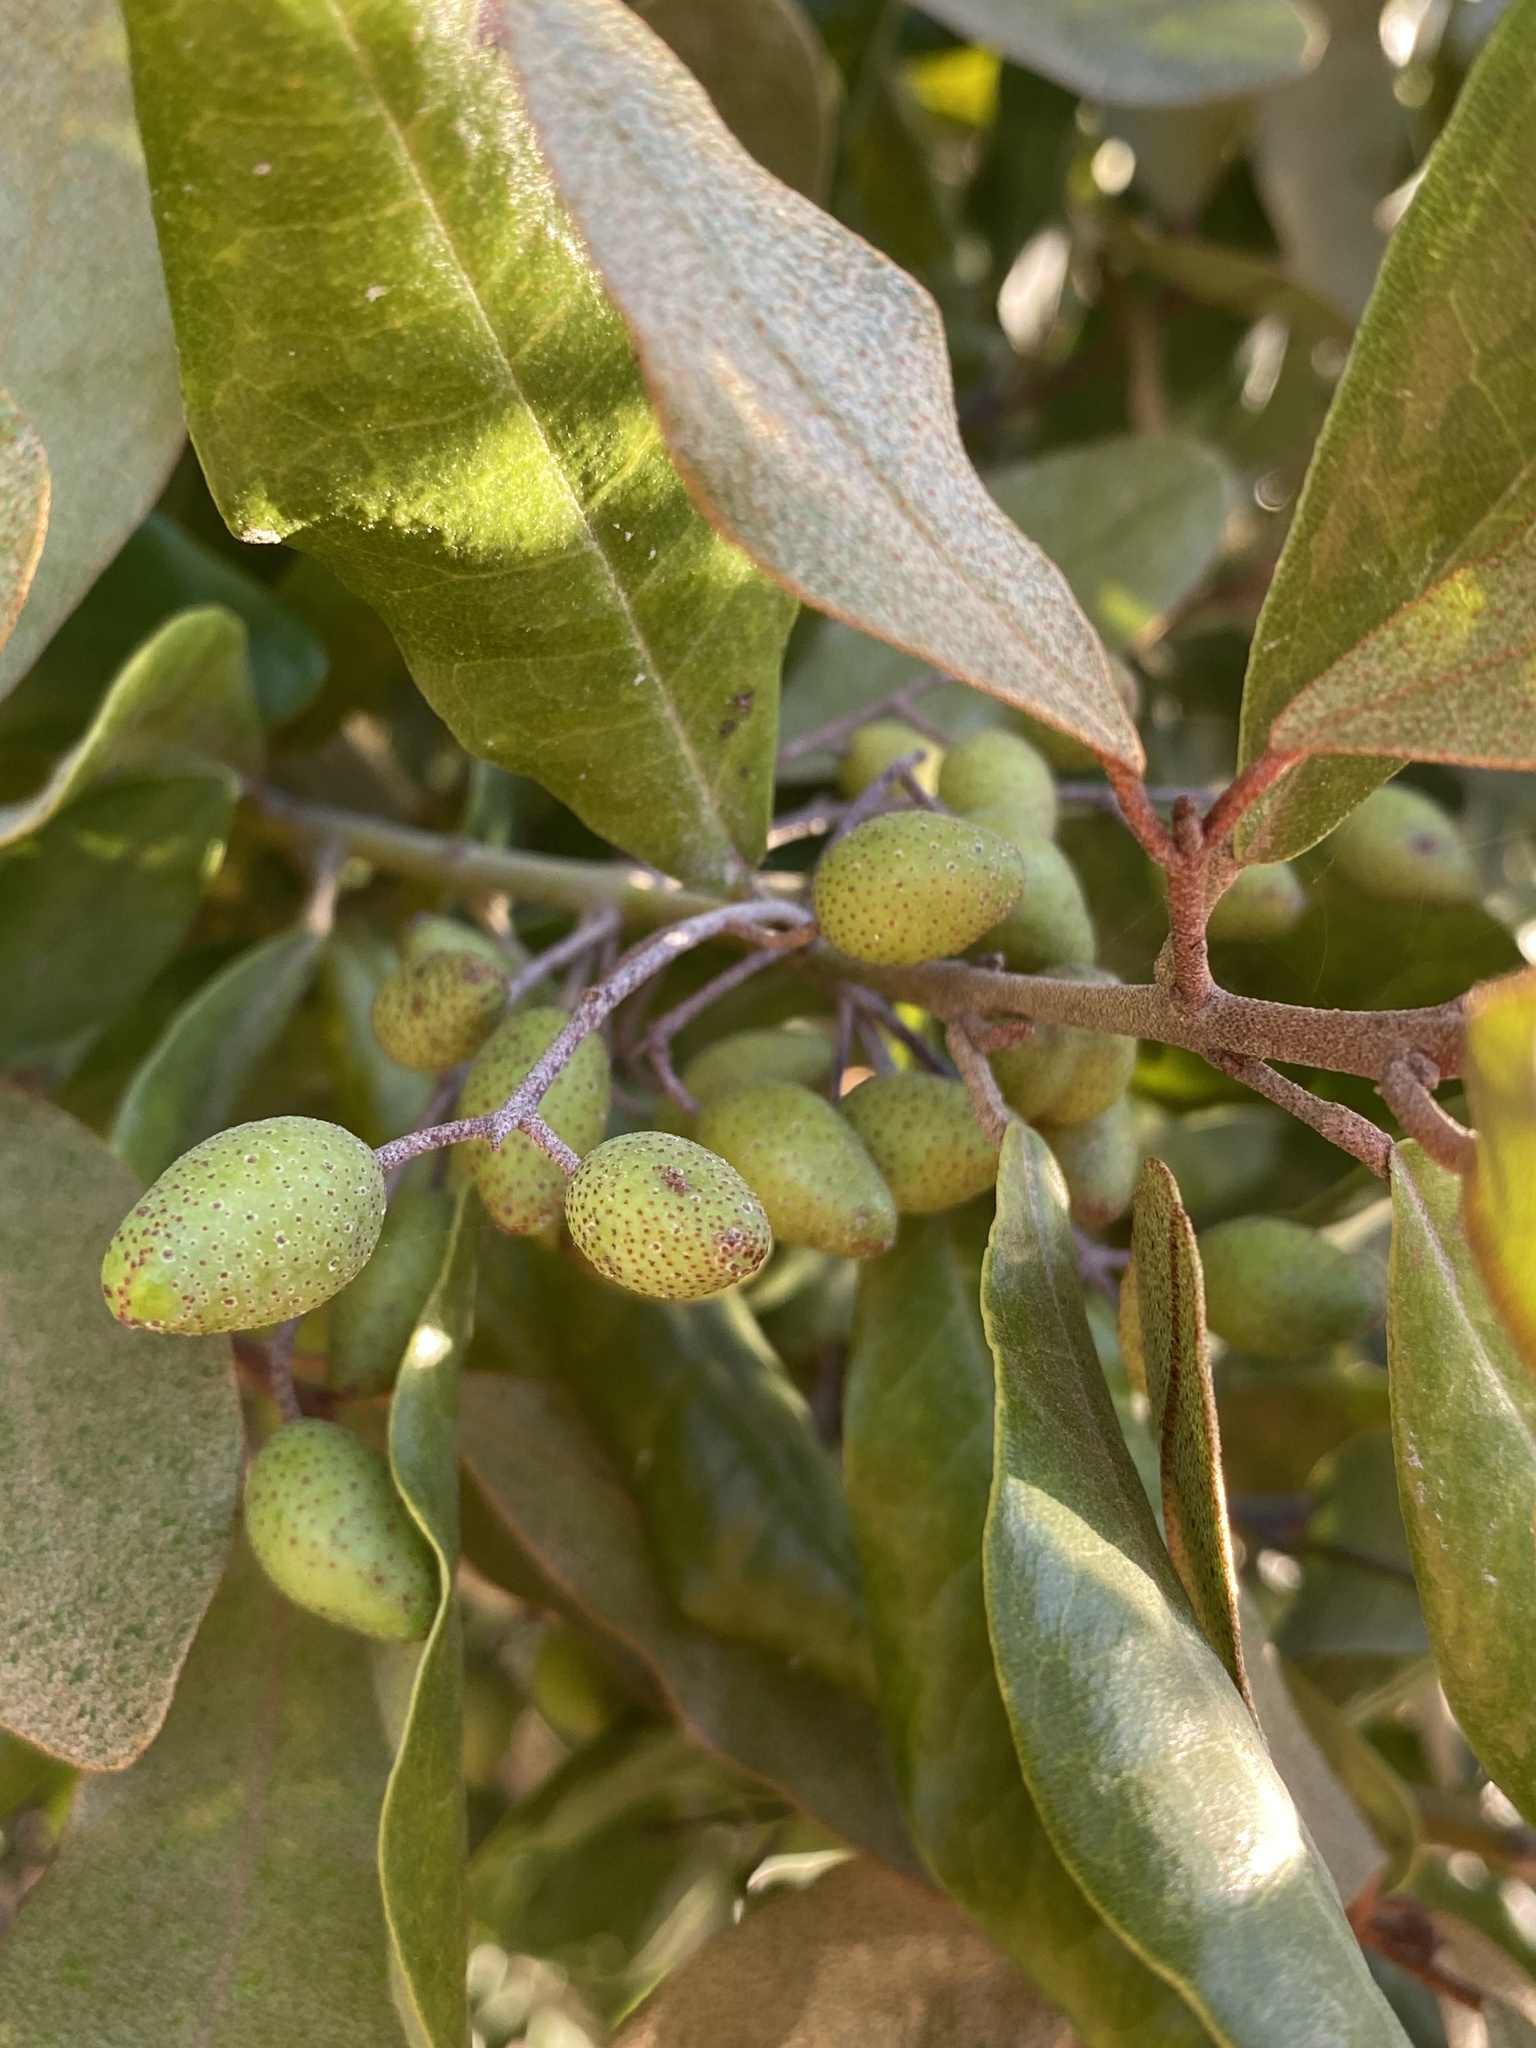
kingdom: Plantae
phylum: Tracheophyta
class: Magnoliopsida
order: Berberidopsidales
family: Aextoxicaceae
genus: Aextoxicon
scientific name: Aextoxicon punctatum
